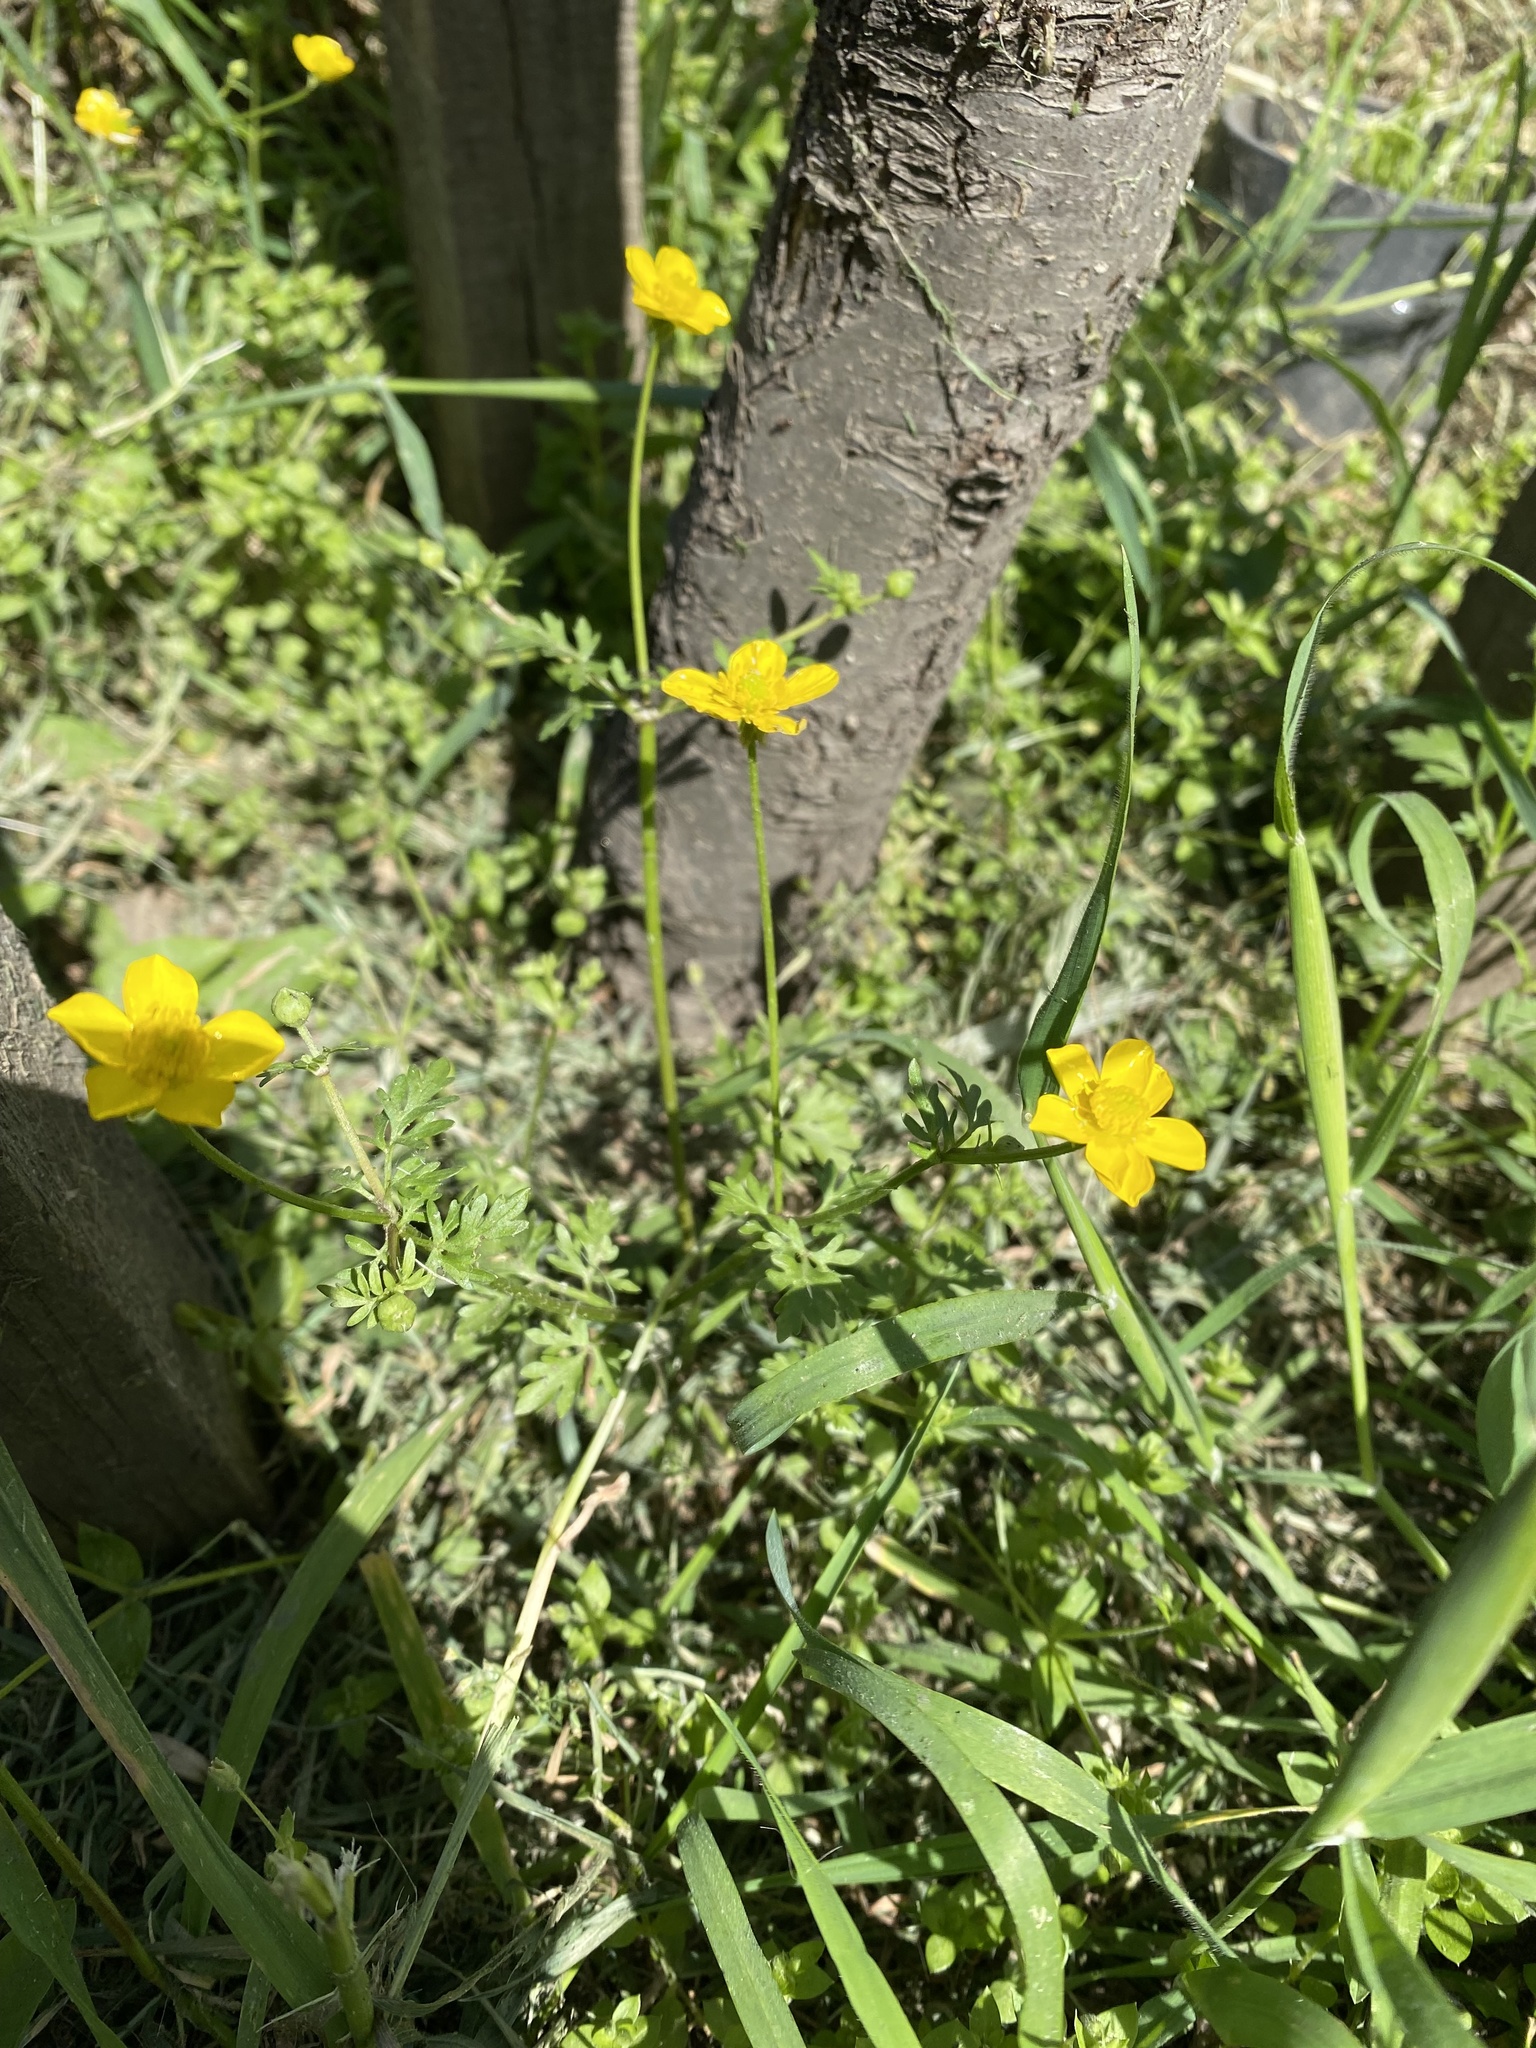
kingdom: Plantae
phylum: Tracheophyta
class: Magnoliopsida
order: Ranunculales
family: Ranunculaceae
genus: Ranunculus
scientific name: Ranunculus repens
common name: Creeping buttercup
